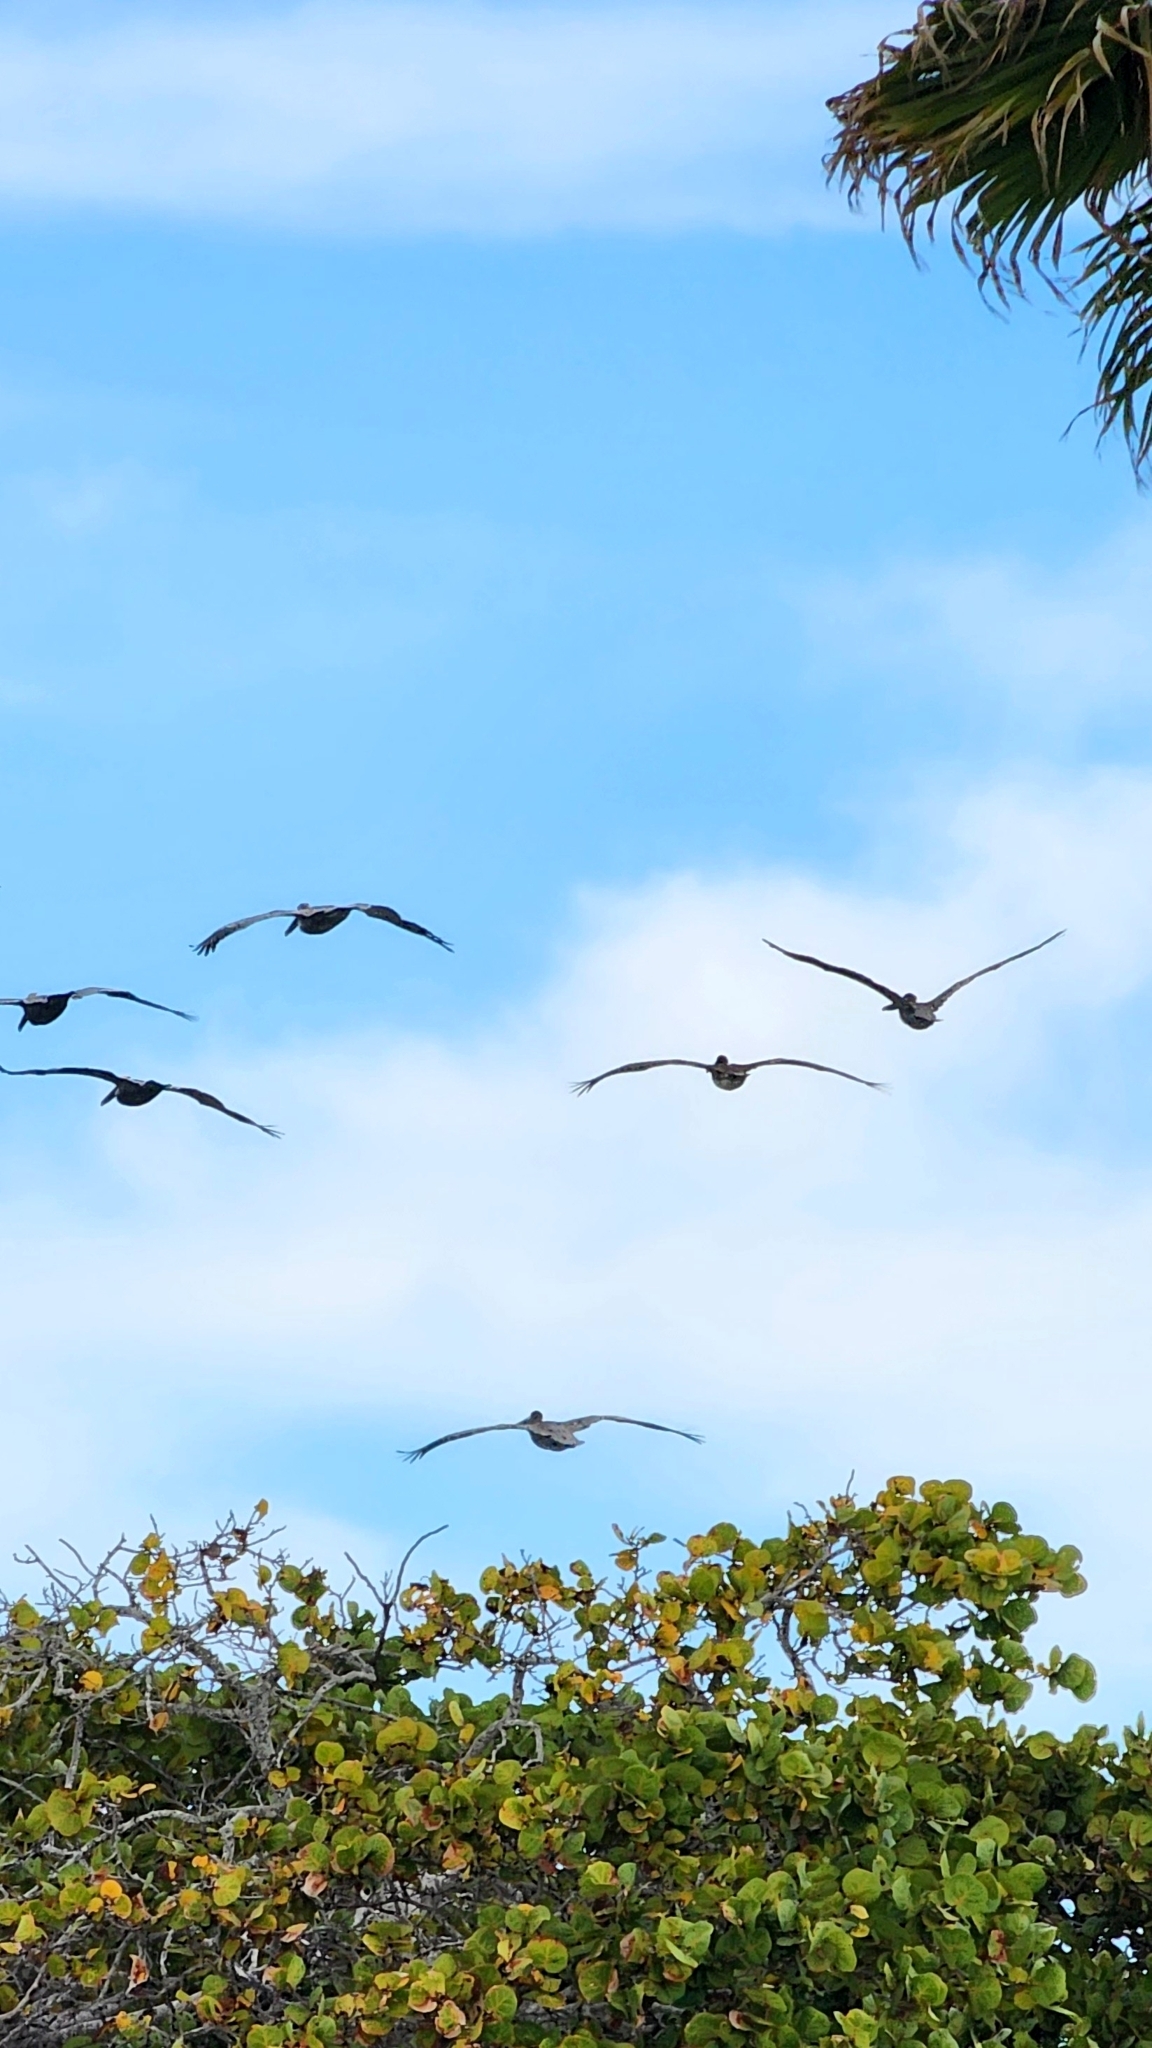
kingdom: Animalia
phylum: Chordata
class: Aves
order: Pelecaniformes
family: Pelecanidae
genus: Pelecanus
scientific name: Pelecanus occidentalis
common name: Brown pelican
